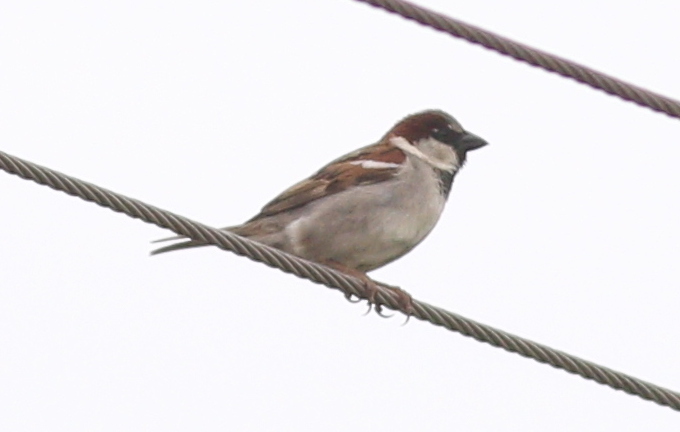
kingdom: Animalia
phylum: Chordata
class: Aves
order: Passeriformes
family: Passeridae
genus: Passer
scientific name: Passer domesticus
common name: House sparrow
